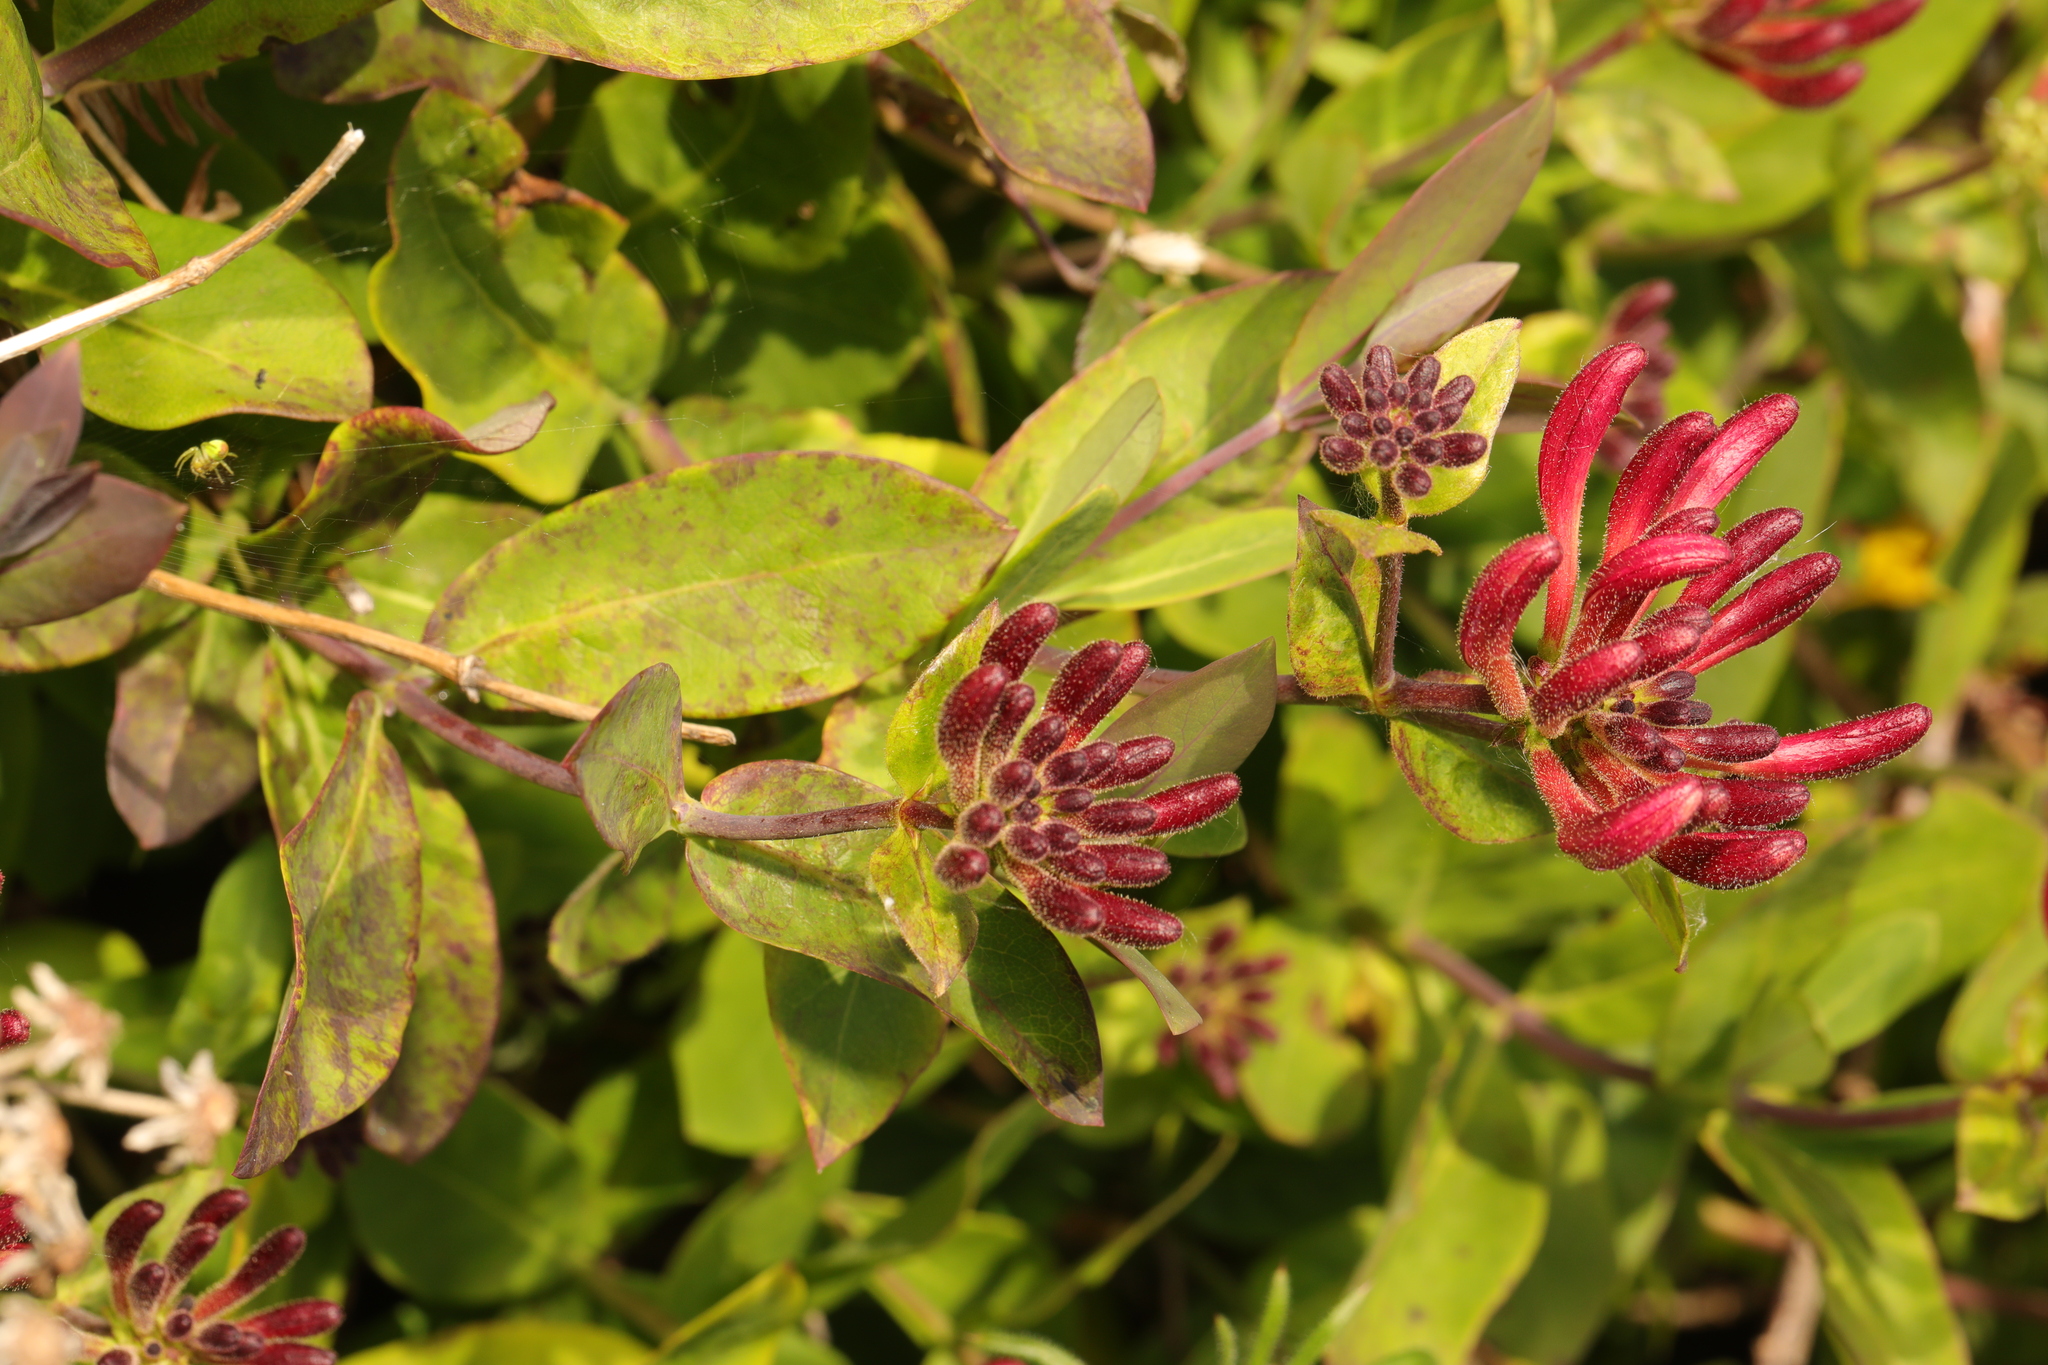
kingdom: Plantae
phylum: Tracheophyta
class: Magnoliopsida
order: Dipsacales
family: Caprifoliaceae
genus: Lonicera
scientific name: Lonicera periclymenum
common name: European honeysuckle
